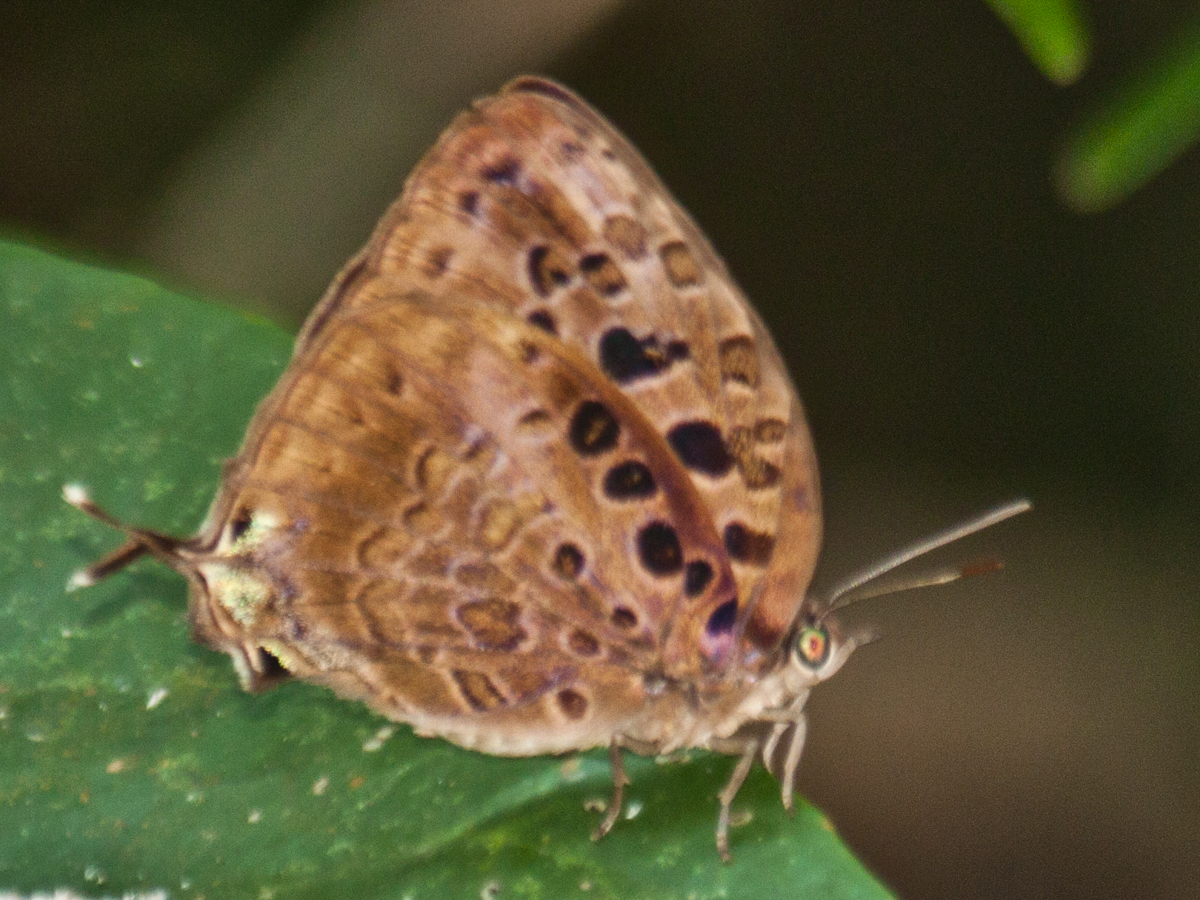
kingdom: Animalia
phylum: Arthropoda
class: Insecta
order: Lepidoptera
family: Lycaenidae
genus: Arhopala
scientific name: Arhopala anthelus
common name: Bushblue
